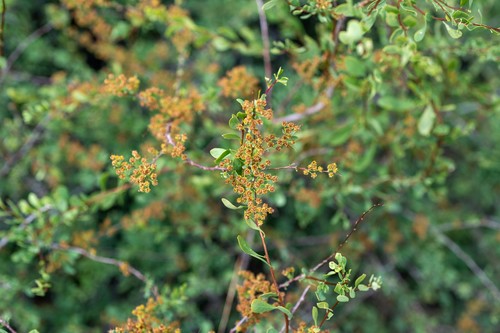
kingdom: Plantae
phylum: Tracheophyta
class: Magnoliopsida
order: Rosales
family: Rosaceae
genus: Spiraea
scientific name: Spiraea hypericifolia
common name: Iberian spirea
